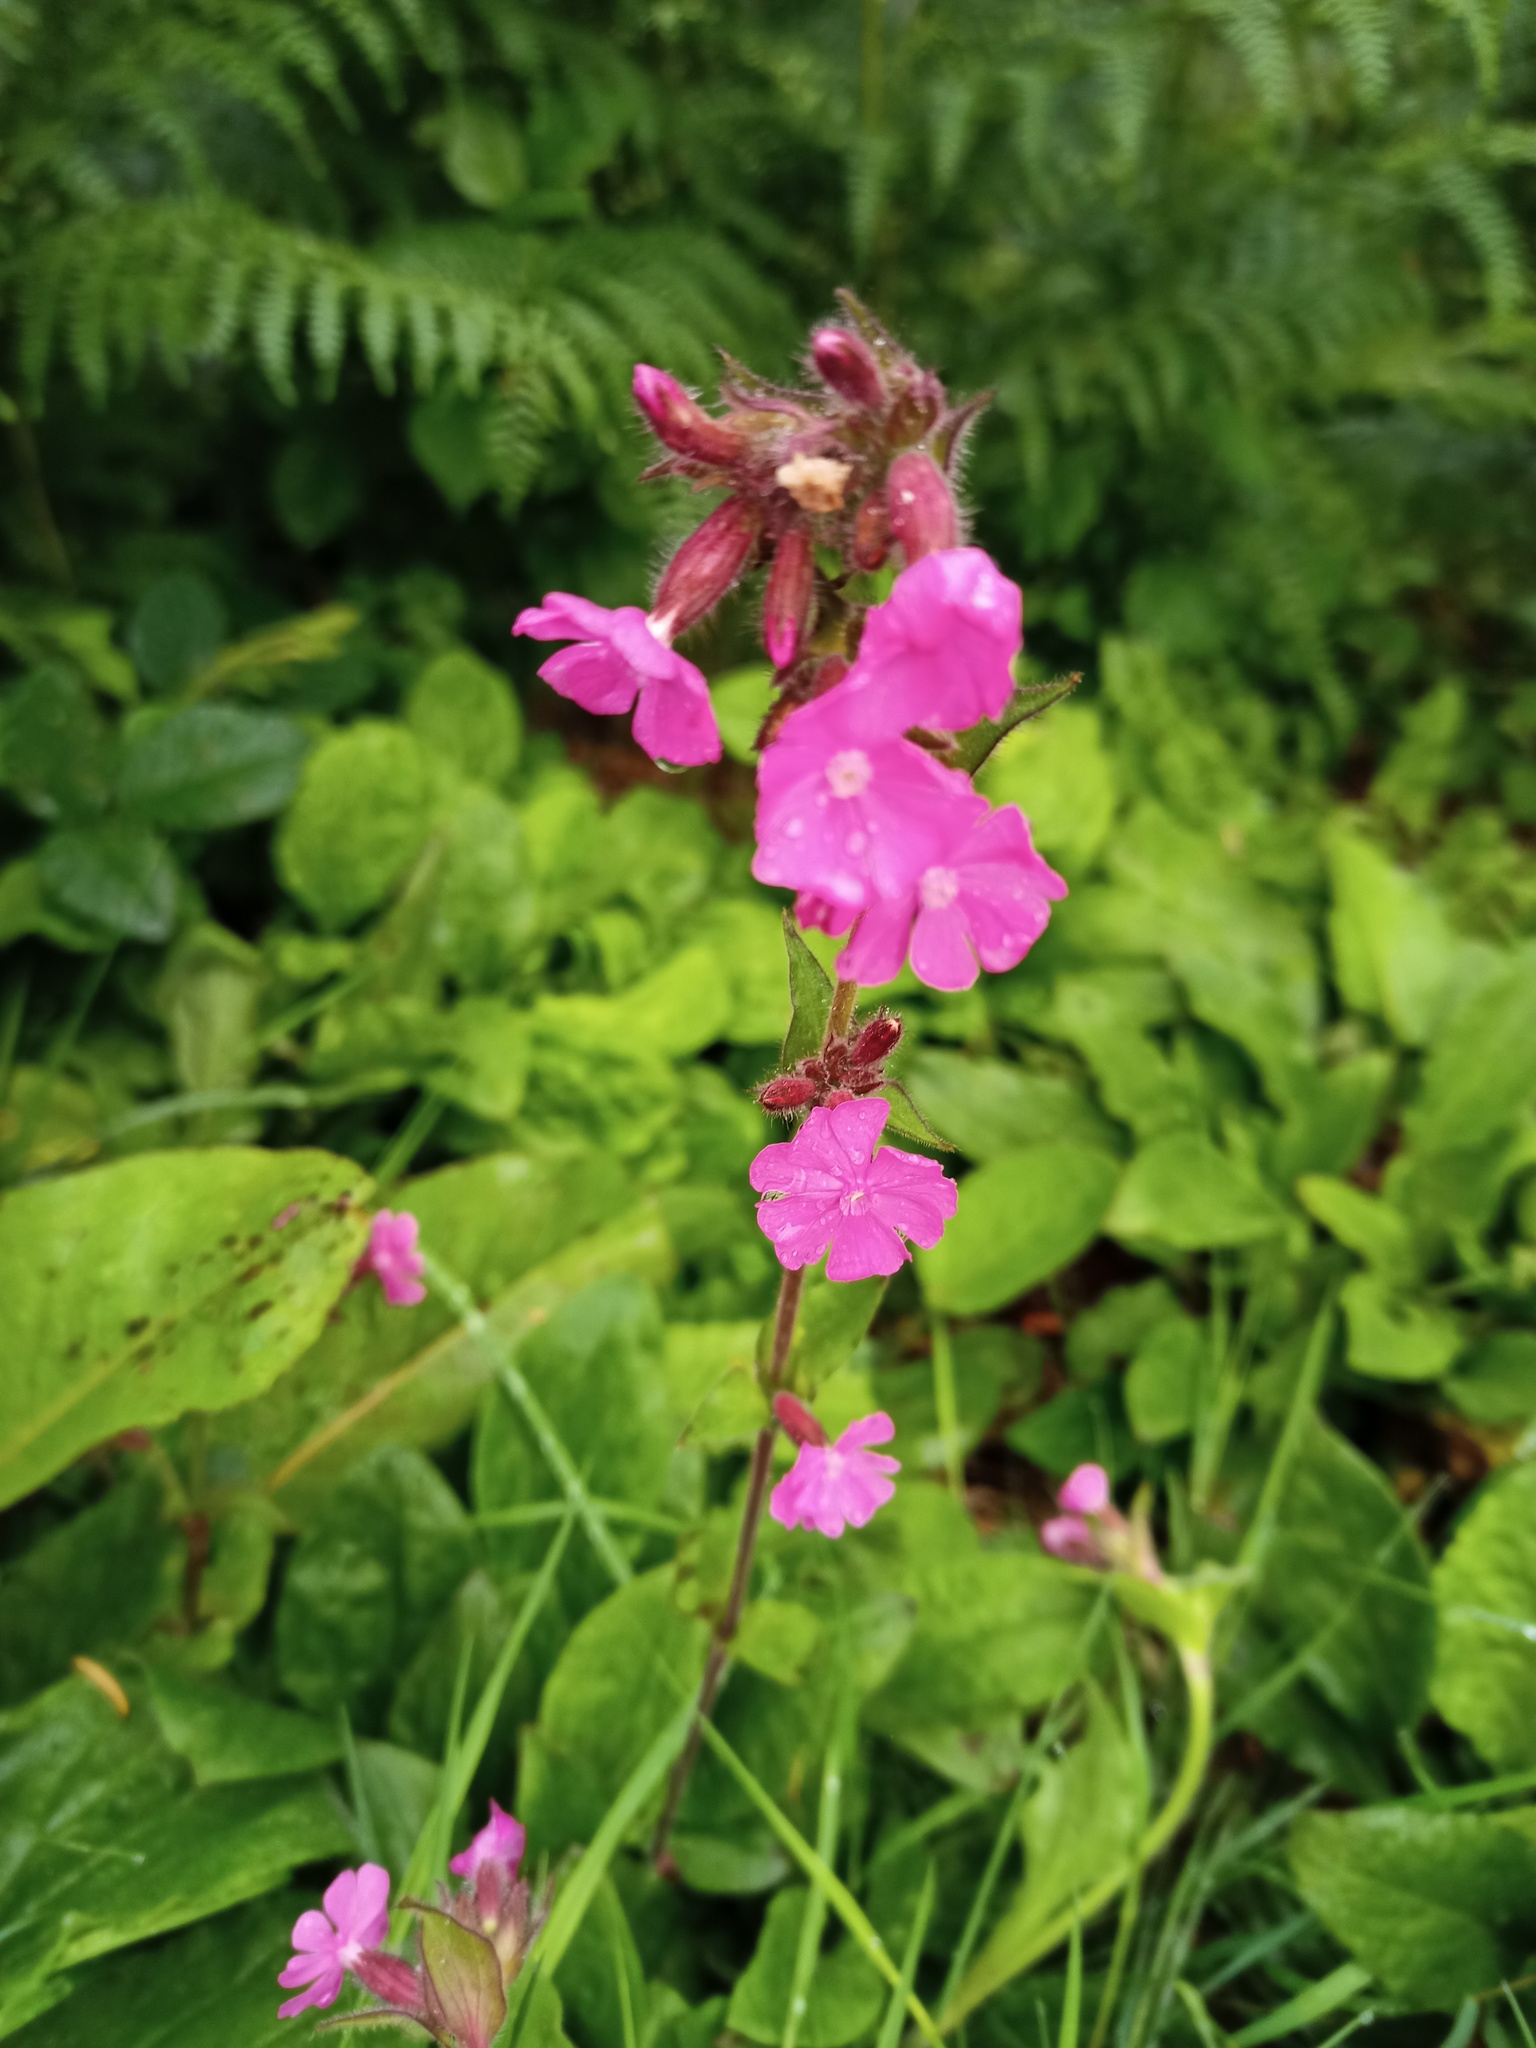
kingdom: Plantae
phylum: Tracheophyta
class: Magnoliopsida
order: Caryophyllales
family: Caryophyllaceae
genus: Silene
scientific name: Silene dioica
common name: Red campion
